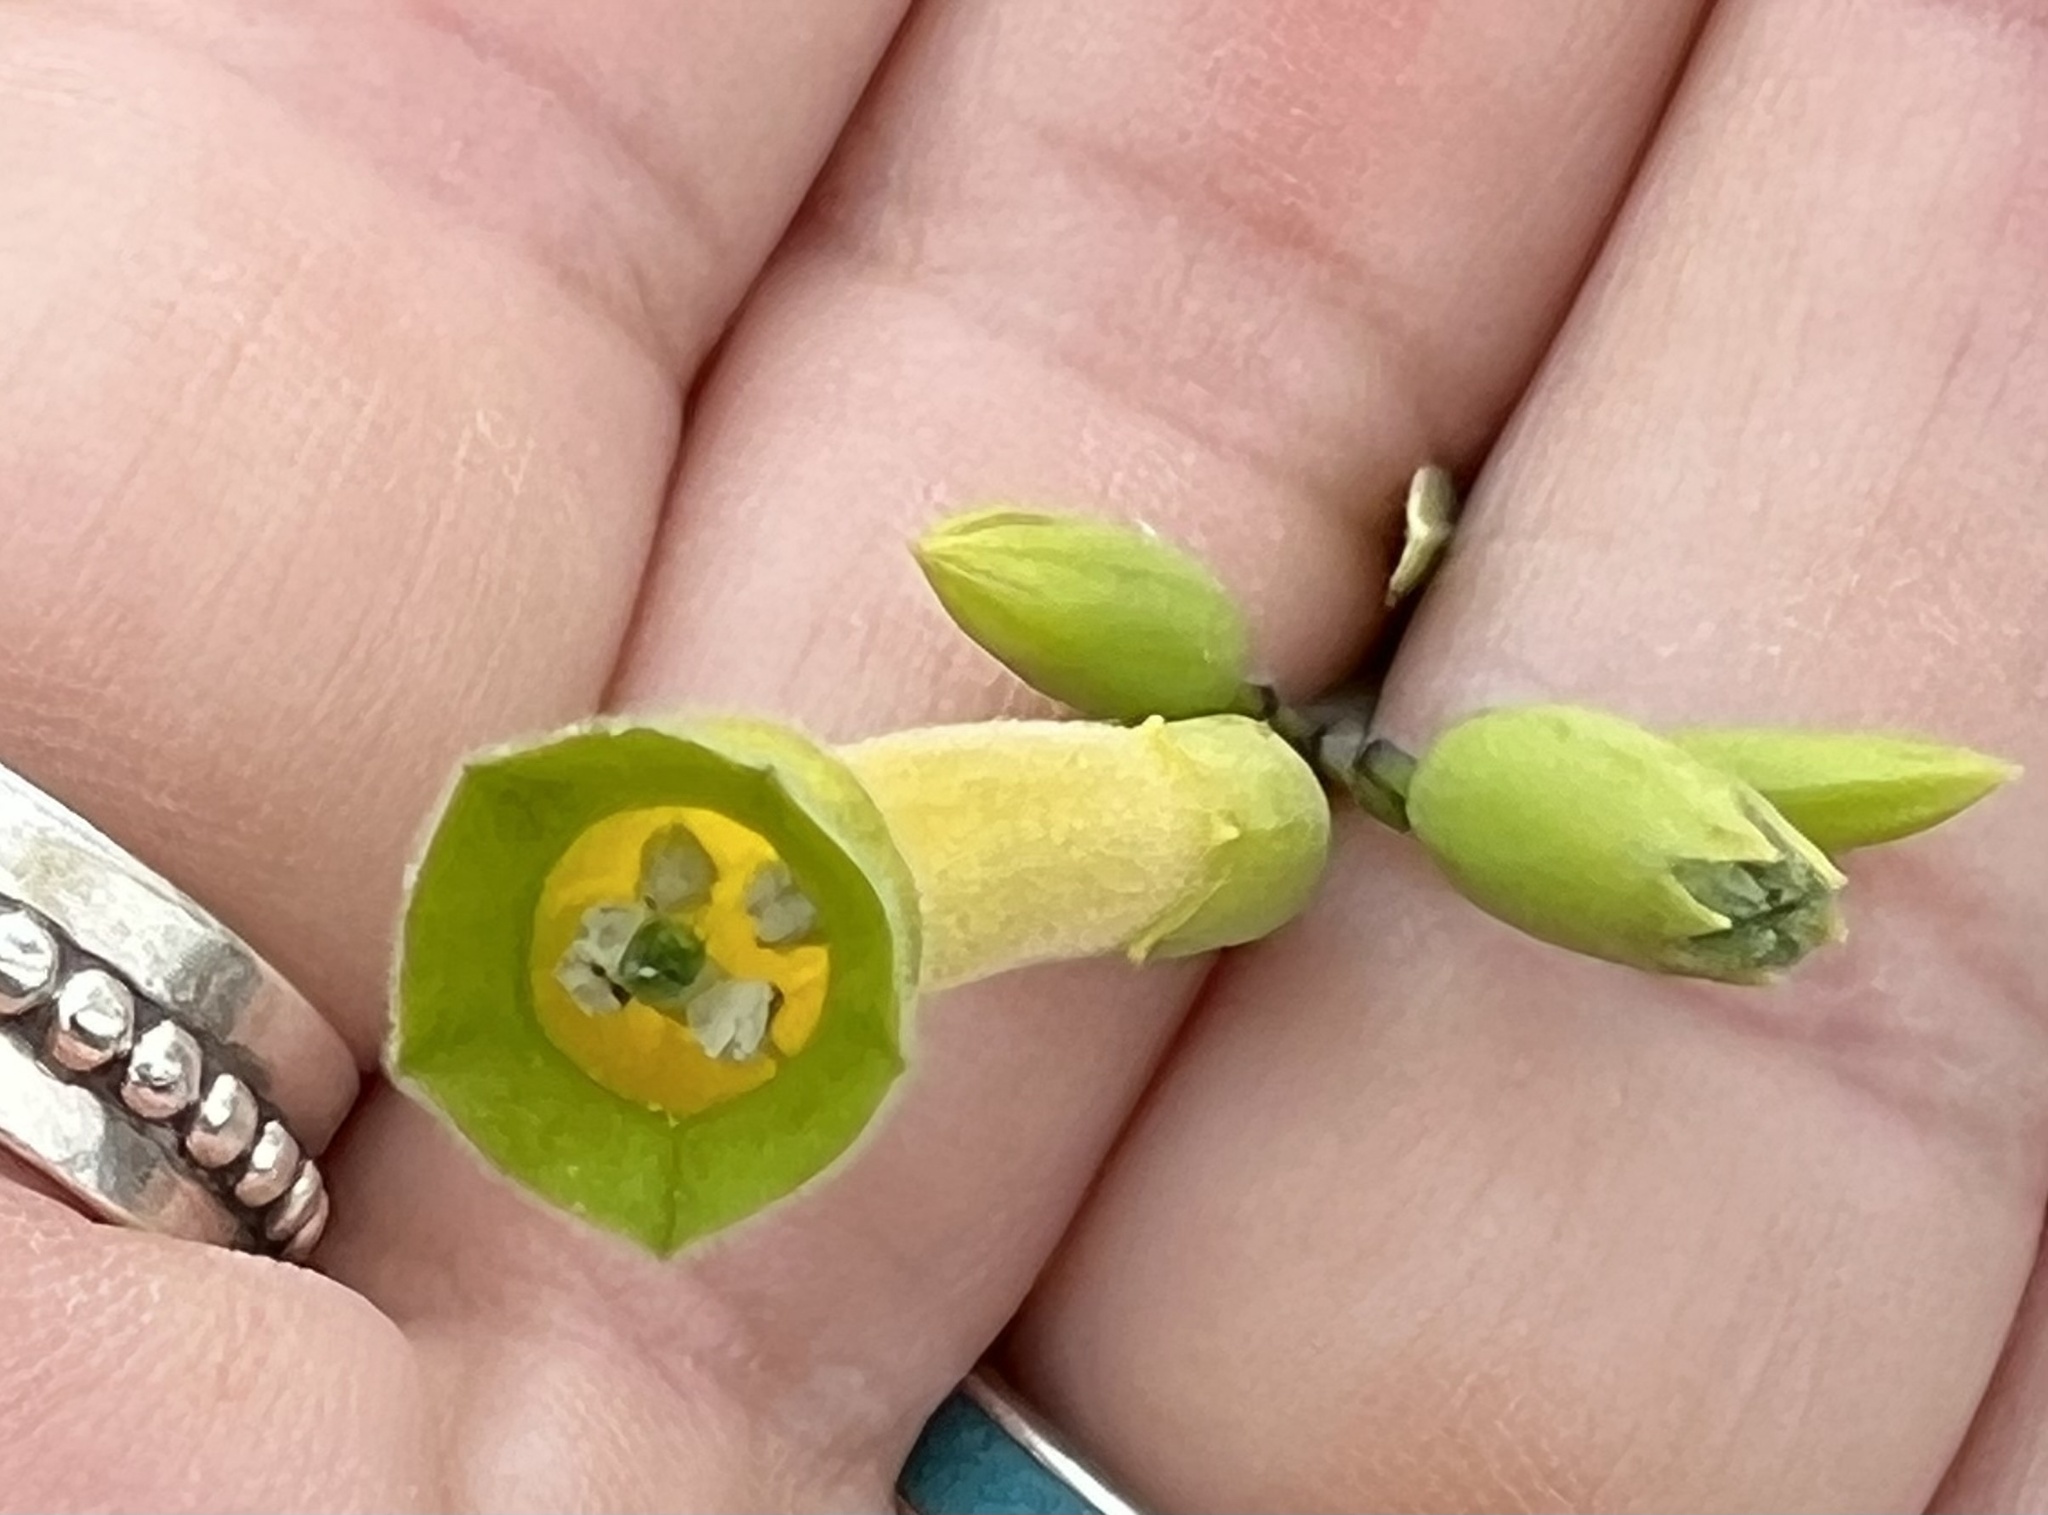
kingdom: Plantae
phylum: Tracheophyta
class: Magnoliopsida
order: Solanales
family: Solanaceae
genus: Nicotiana
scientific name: Nicotiana glauca
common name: Tree tobacco
